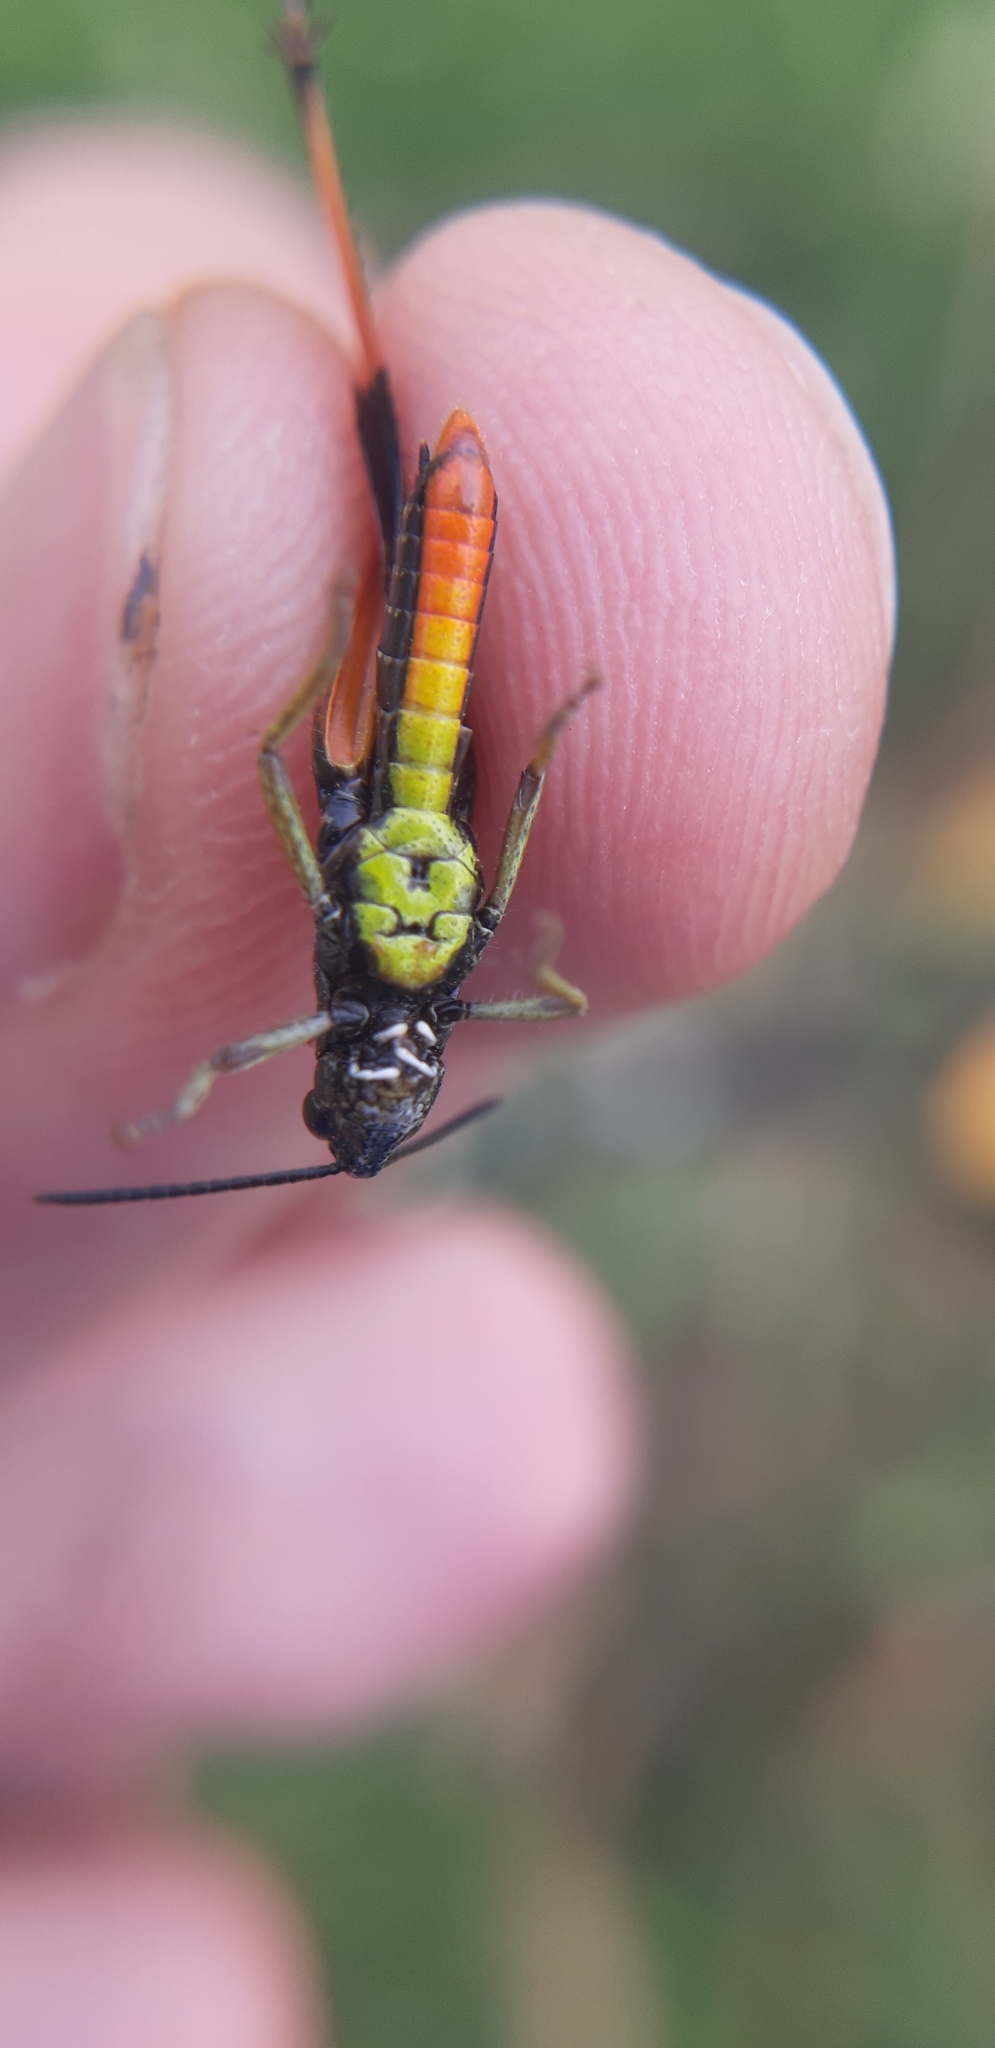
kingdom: Animalia
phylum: Arthropoda
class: Insecta
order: Orthoptera
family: Acrididae
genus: Omocestus
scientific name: Omocestus rufipes
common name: Woodland grasshopper
